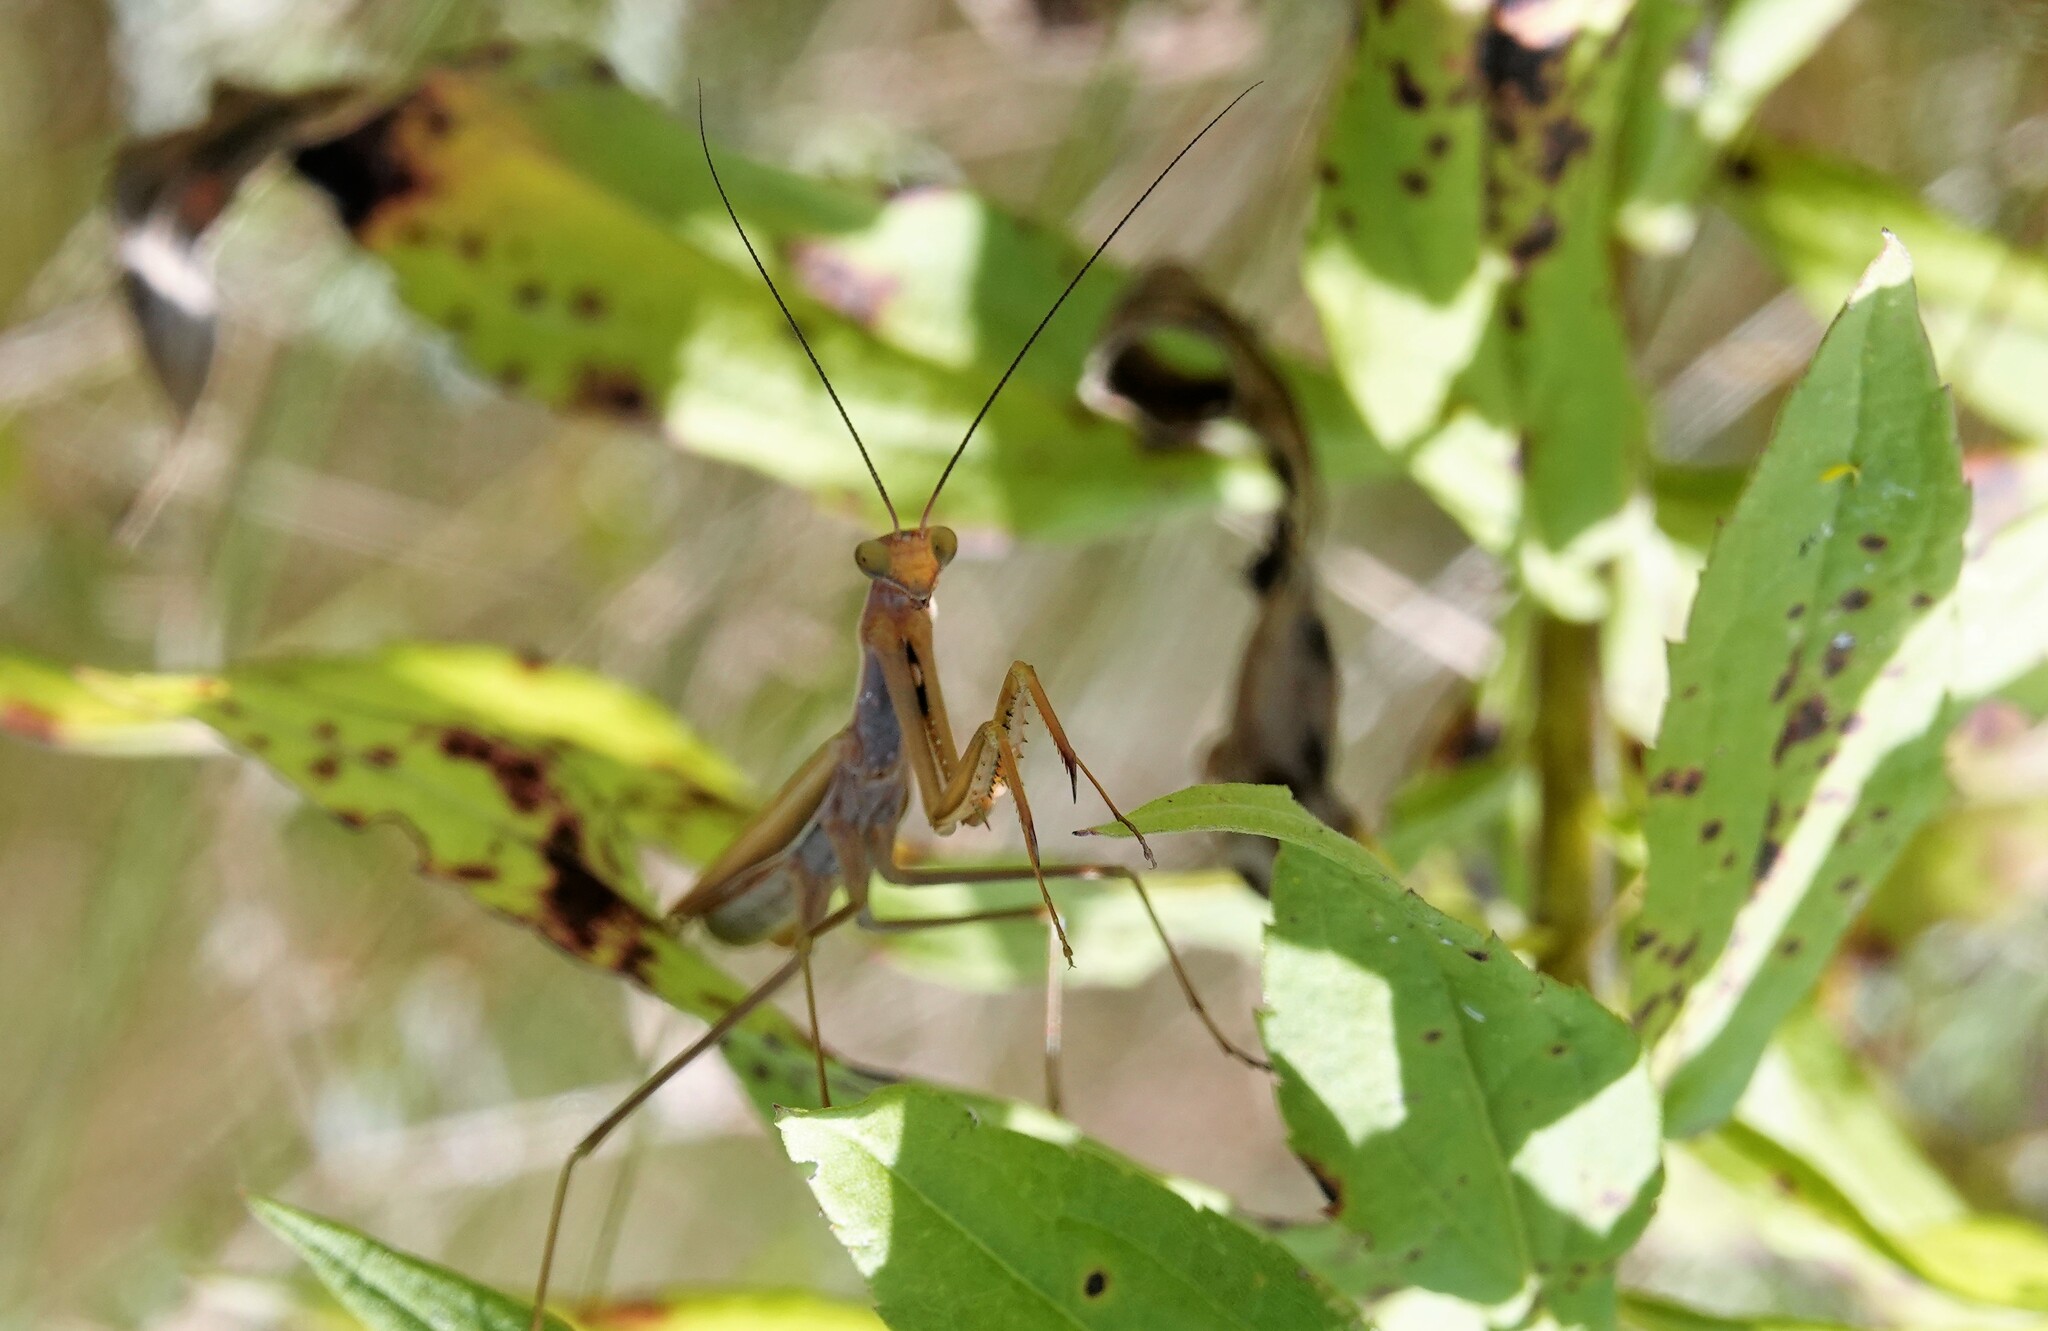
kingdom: Animalia
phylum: Arthropoda
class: Insecta
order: Mantodea
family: Mantidae
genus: Mantis
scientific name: Mantis religiosa
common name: Praying mantis
